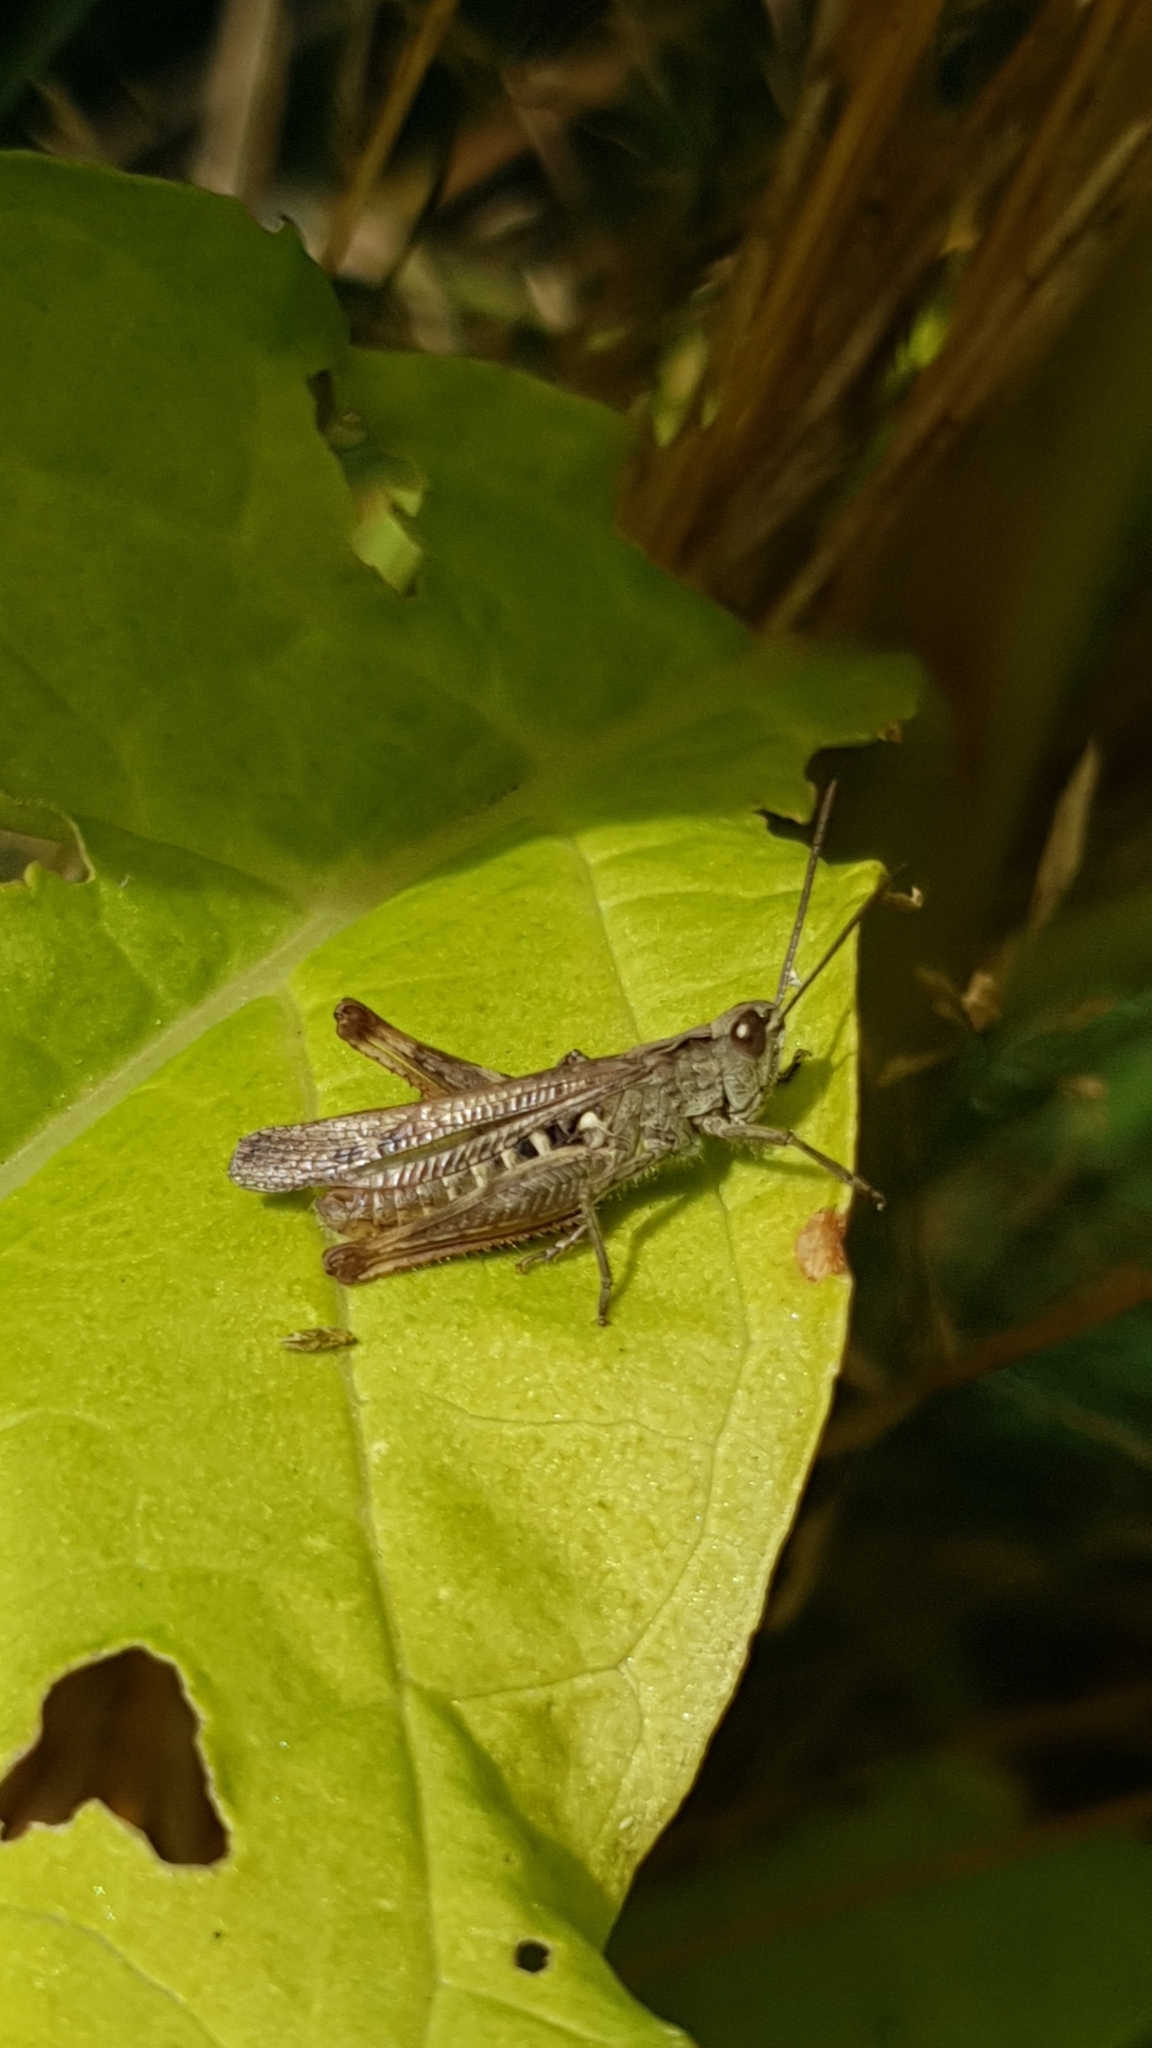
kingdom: Animalia
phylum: Arthropoda
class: Insecta
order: Orthoptera
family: Acrididae
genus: Chorthippus
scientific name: Chorthippus biguttulus
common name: Bow-winged grasshopper
